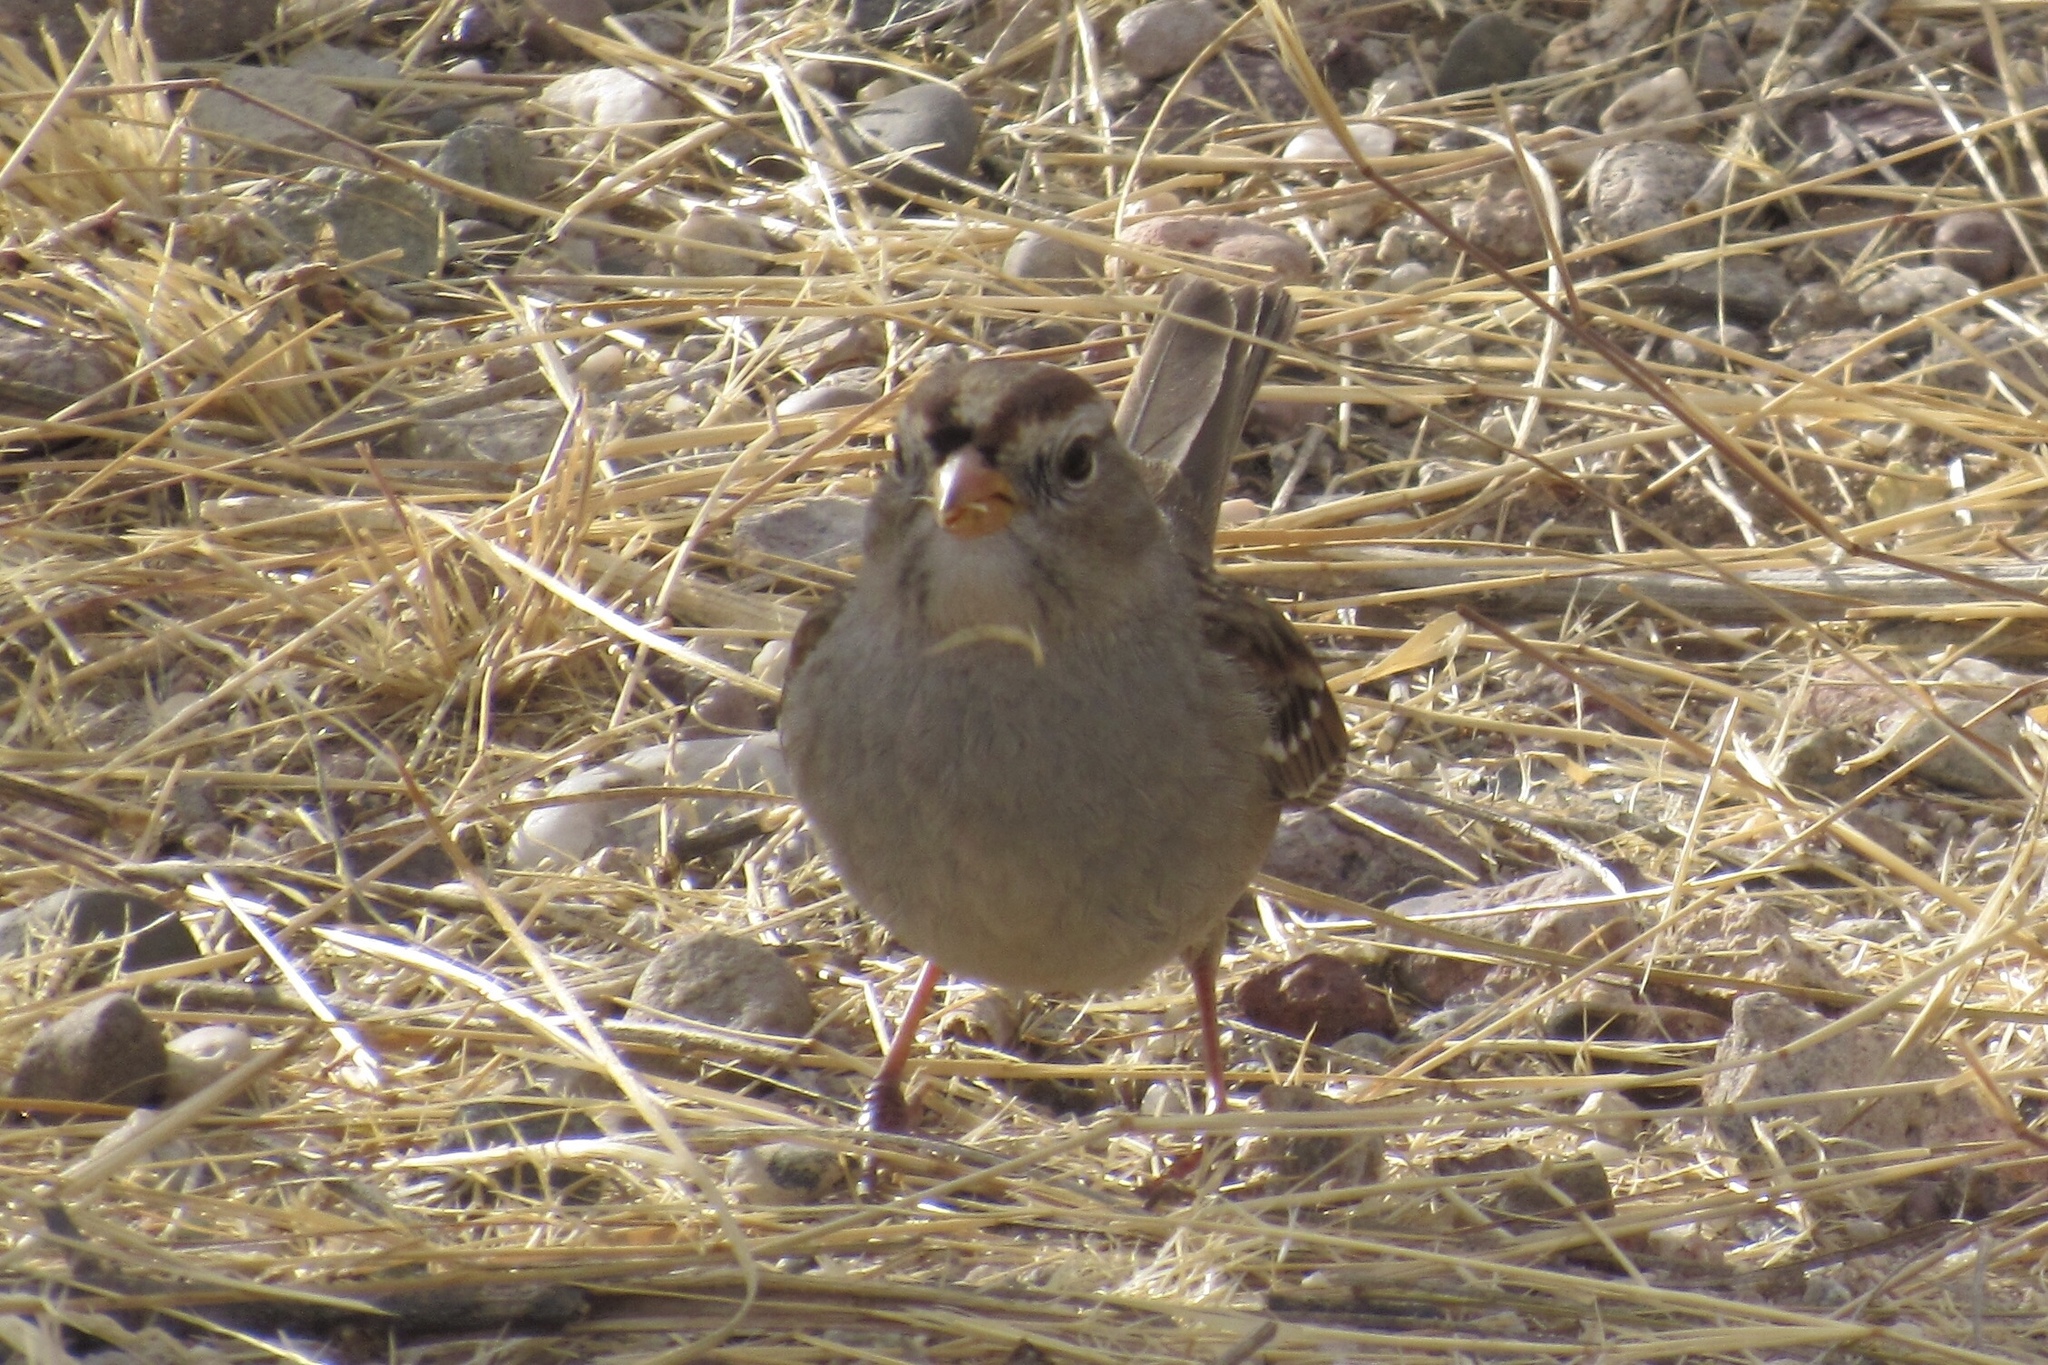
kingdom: Animalia
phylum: Chordata
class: Aves
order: Passeriformes
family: Passerellidae
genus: Zonotrichia
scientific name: Zonotrichia leucophrys
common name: White-crowned sparrow
